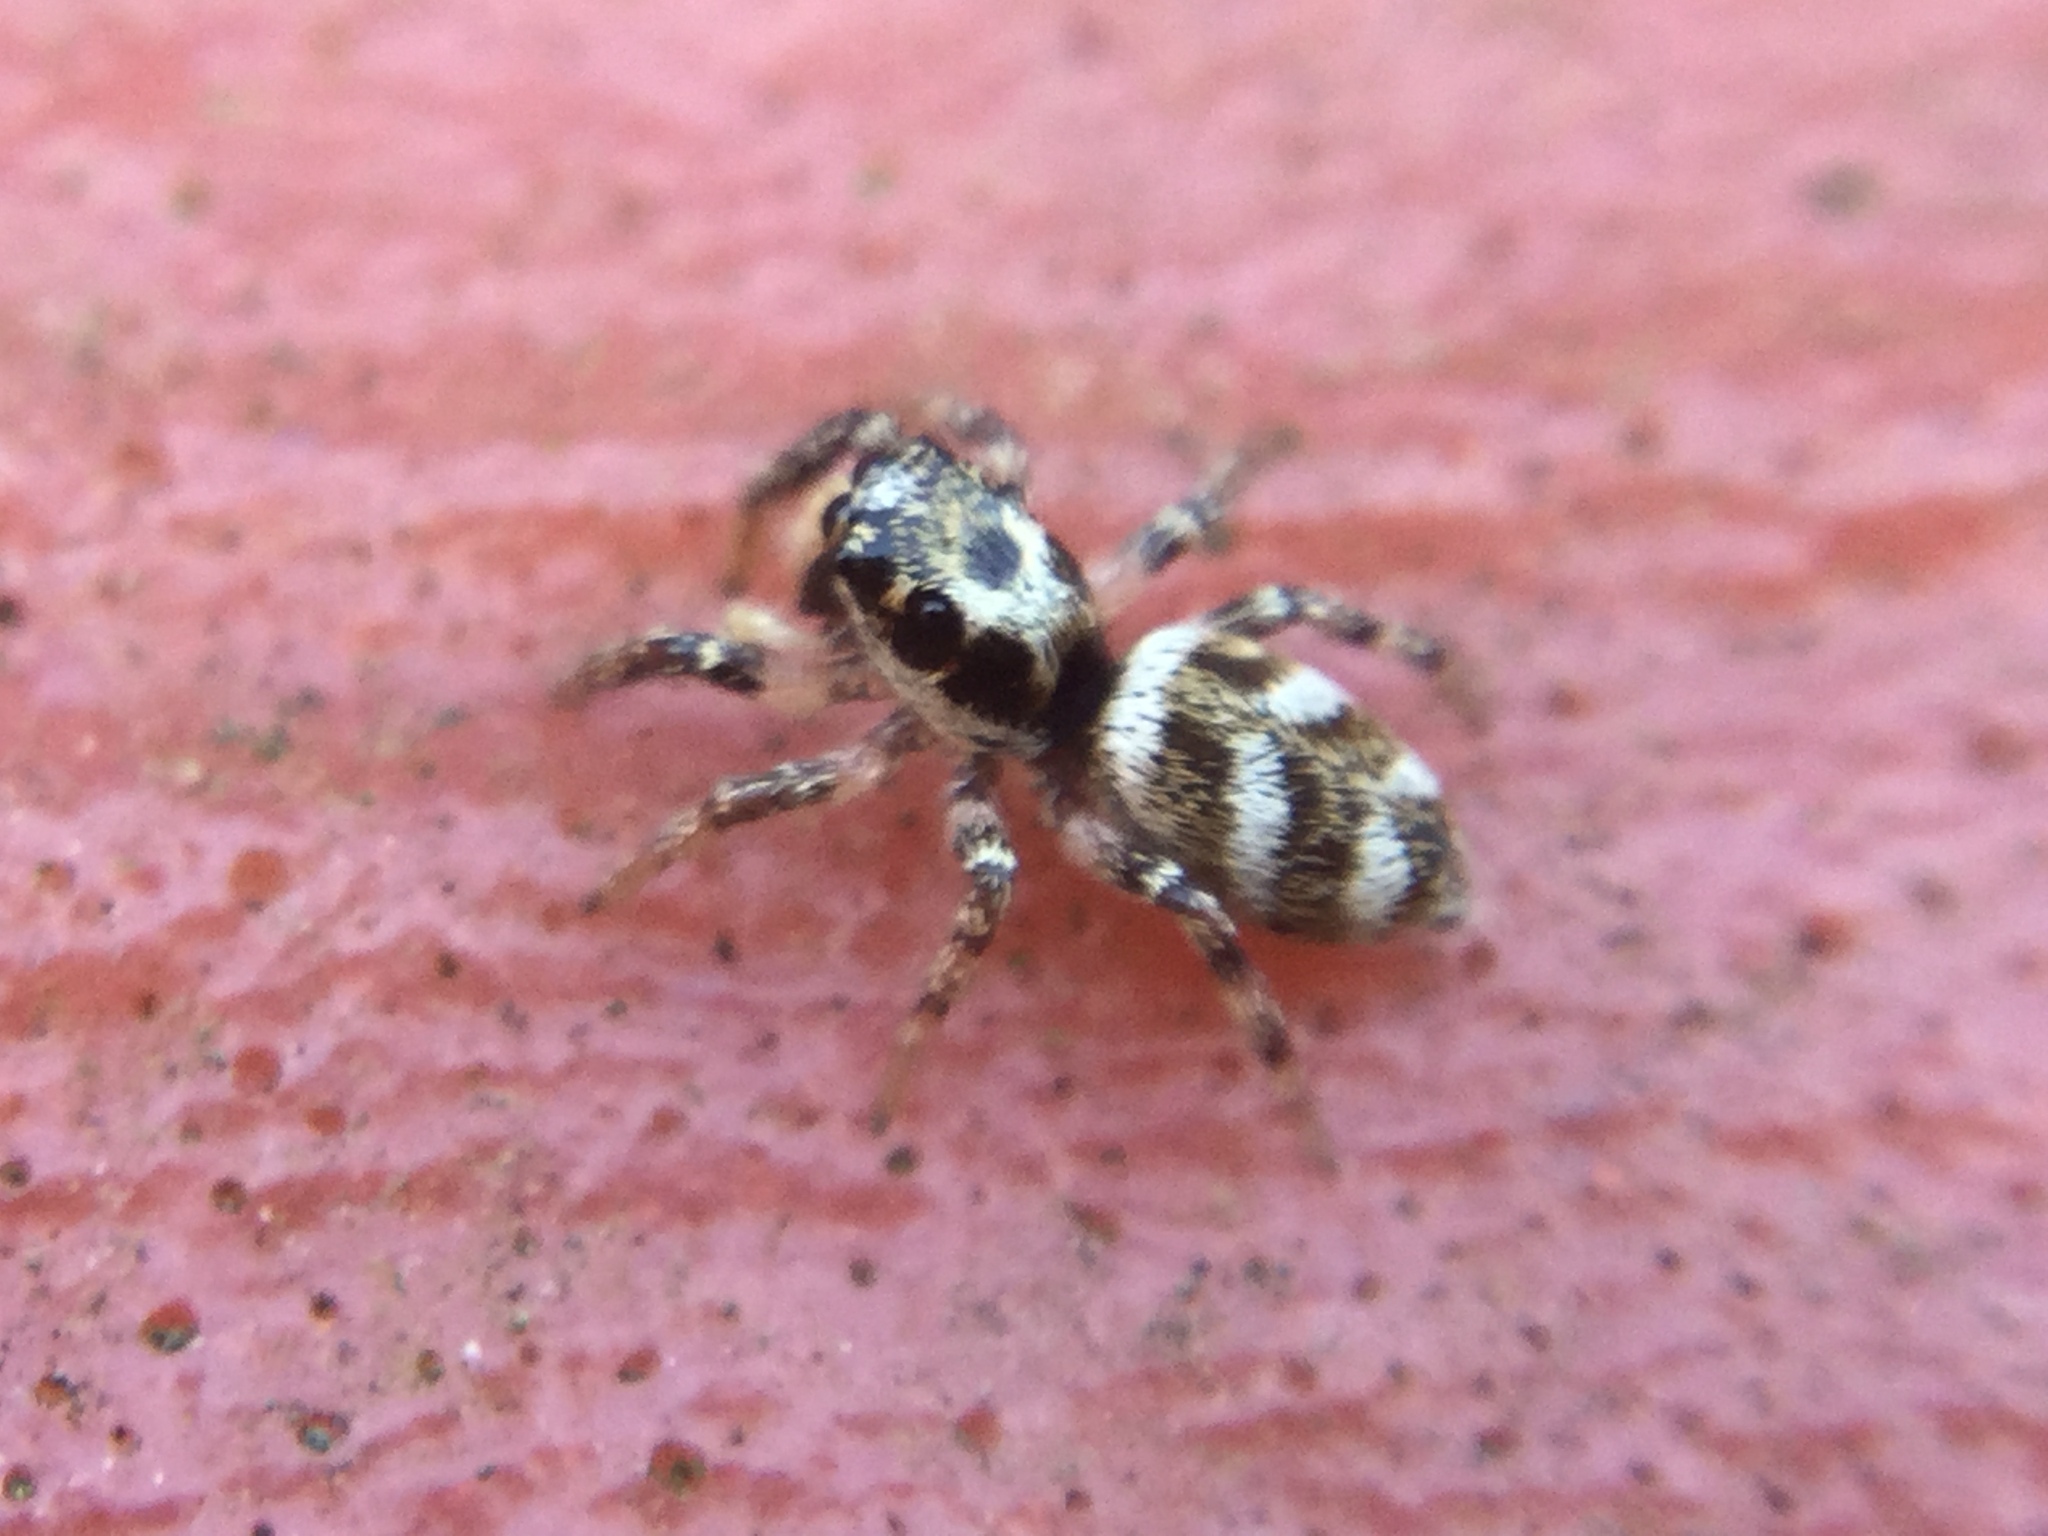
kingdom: Animalia
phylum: Arthropoda
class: Arachnida
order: Araneae
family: Salticidae
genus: Salticus
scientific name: Salticus scenicus
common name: Zebra jumper
